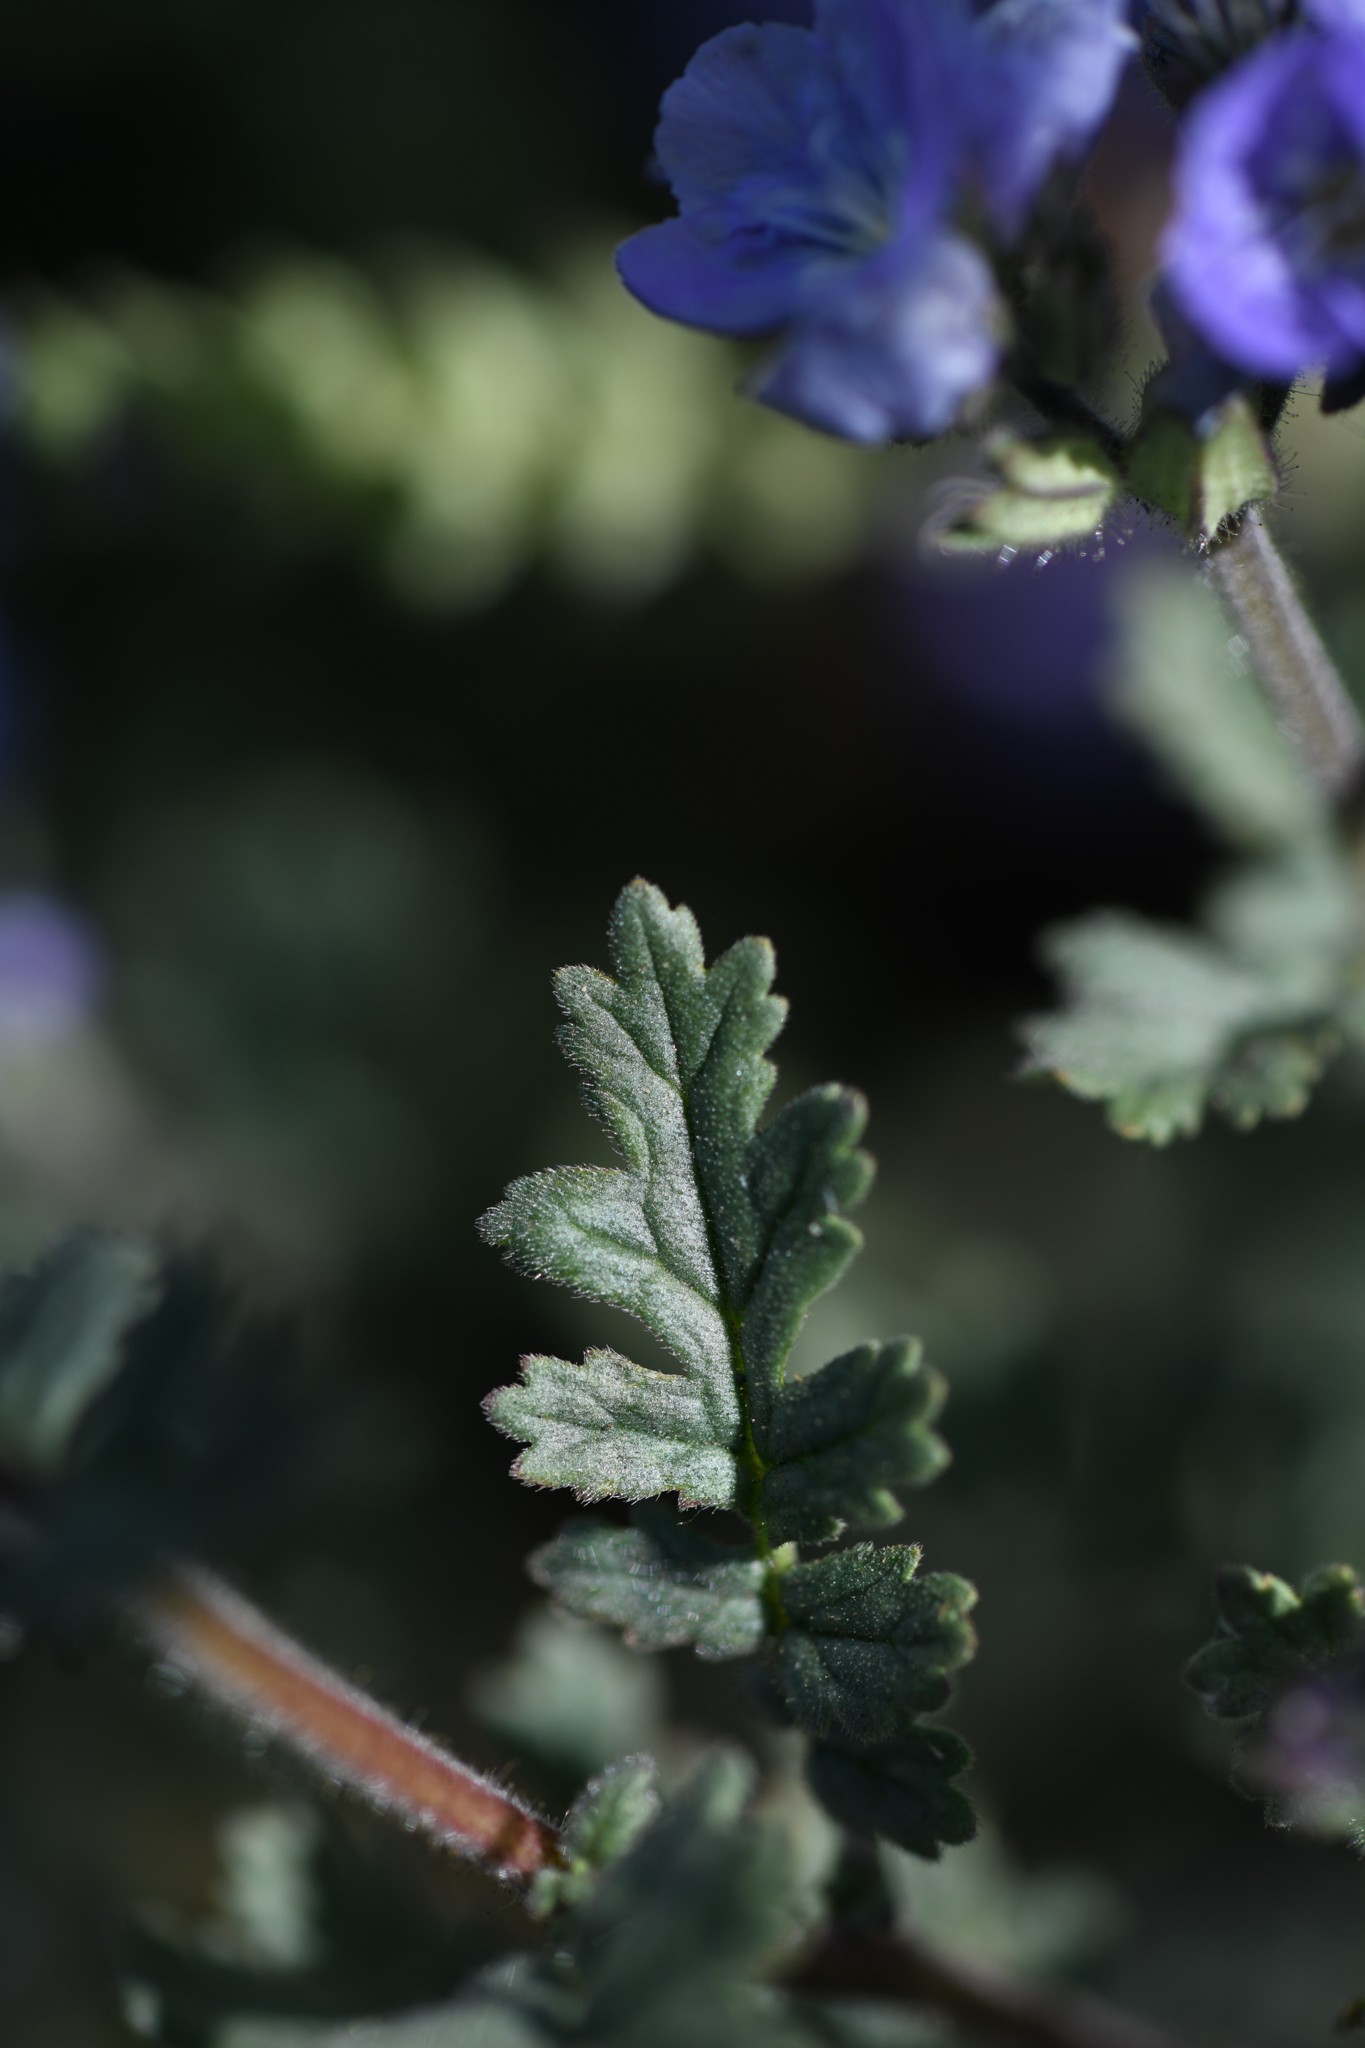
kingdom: Plantae
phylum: Tracheophyta
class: Magnoliopsida
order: Boraginales
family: Hydrophyllaceae
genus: Phacelia
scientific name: Phacelia ciliata
